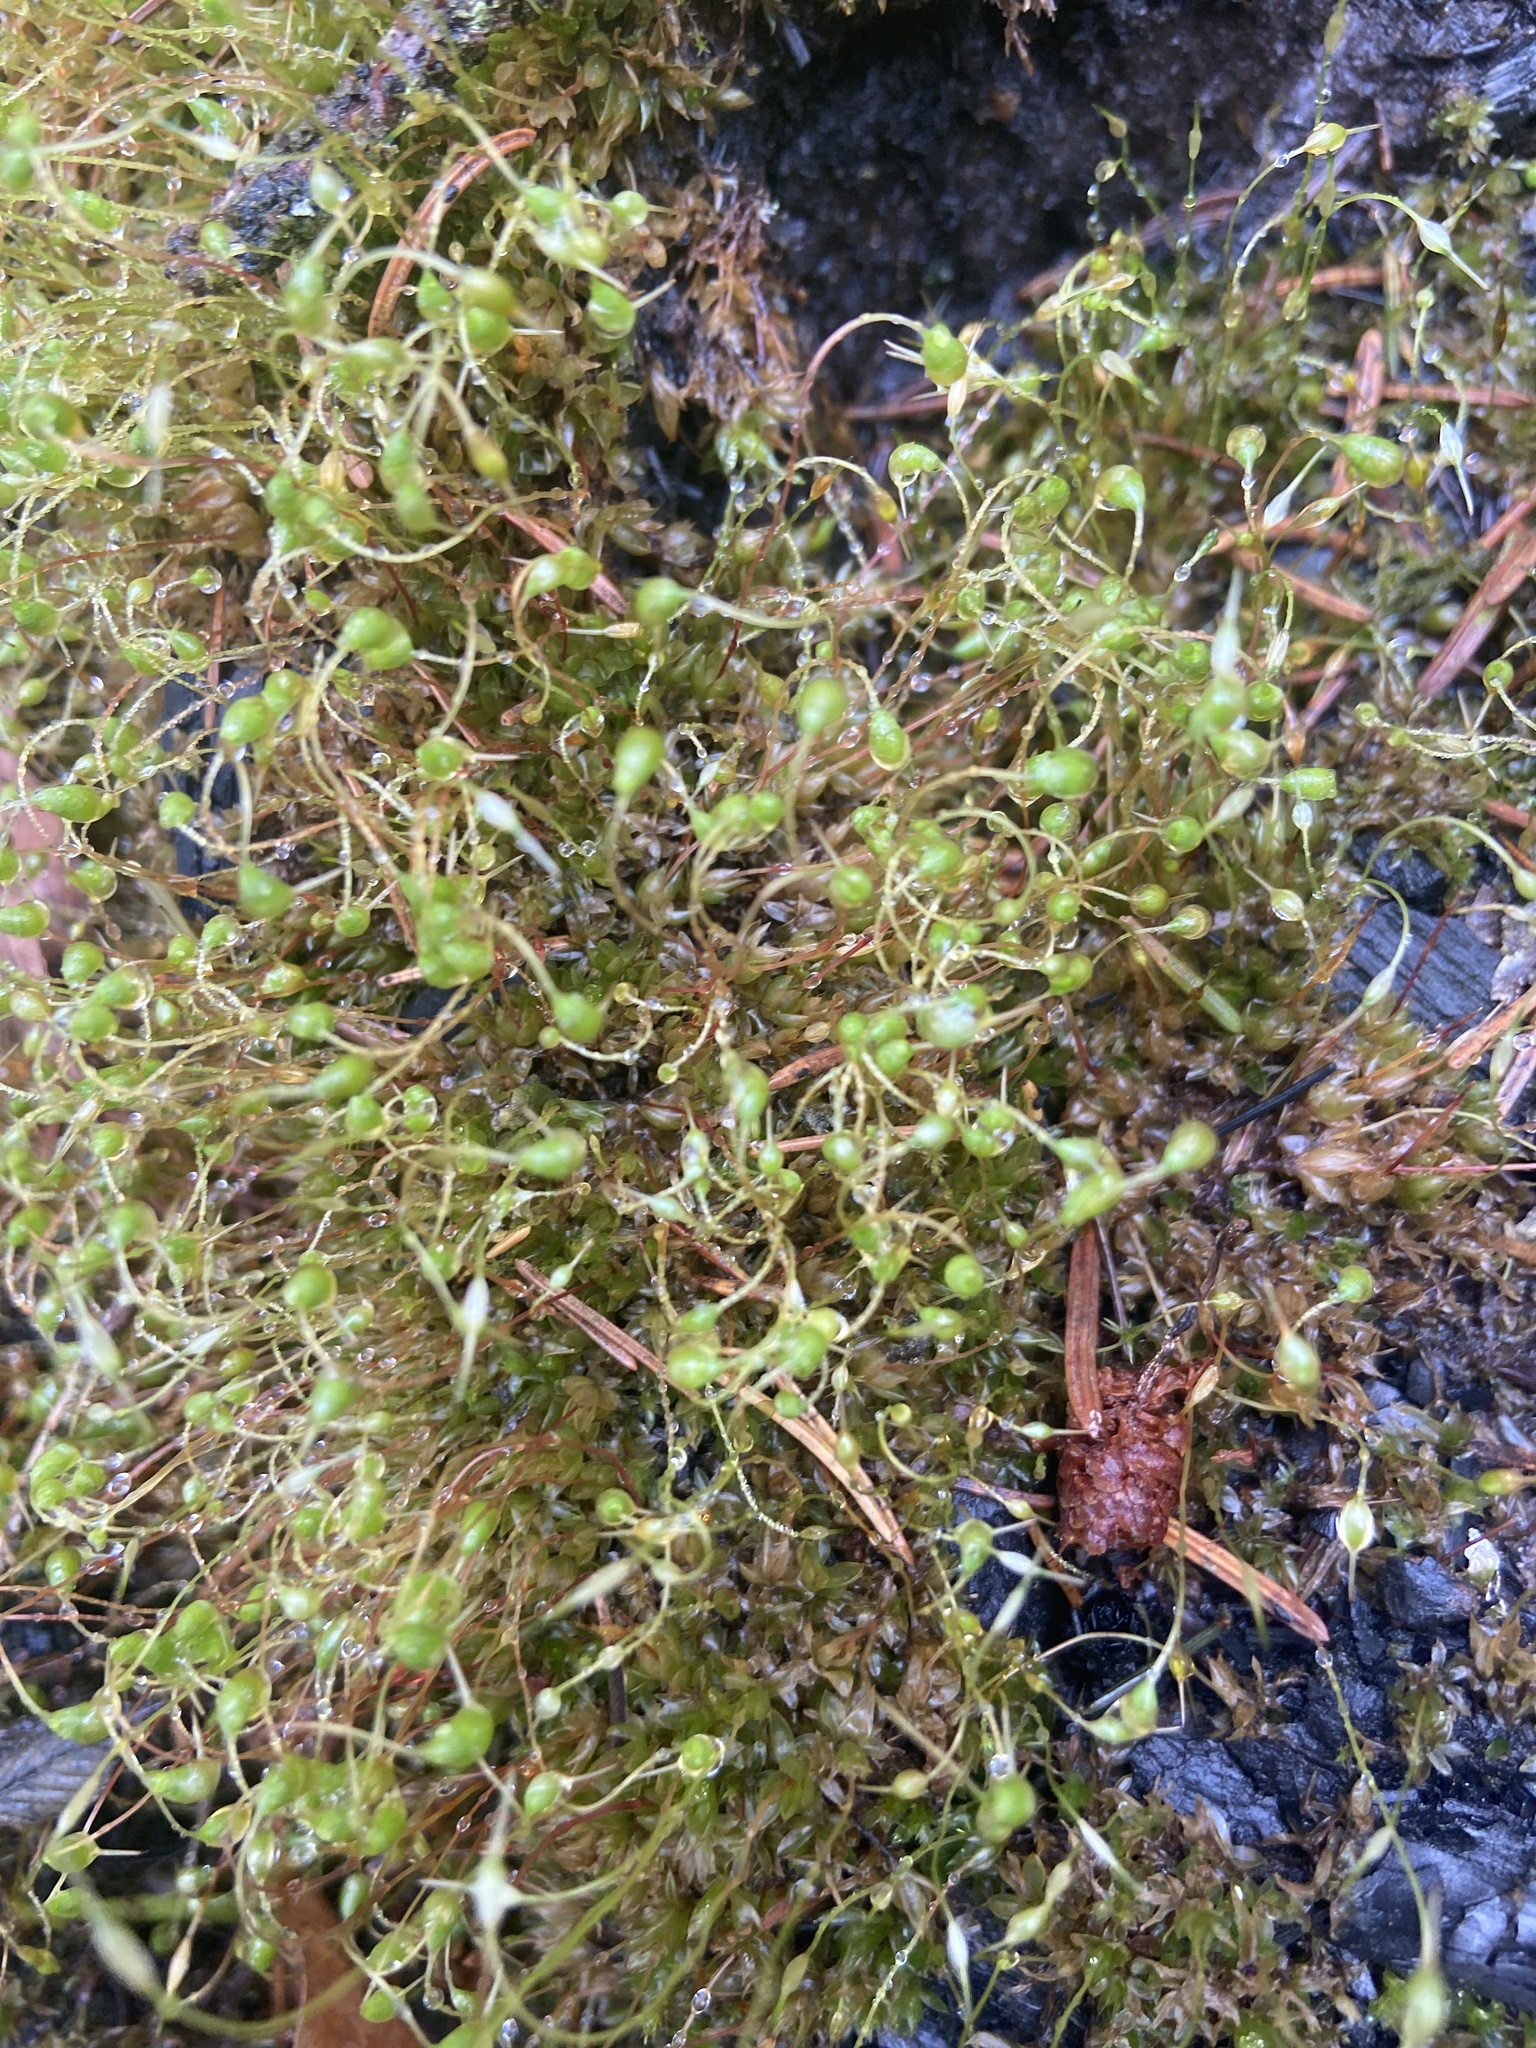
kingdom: Plantae
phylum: Bryophyta
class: Bryopsida
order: Funariales
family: Funariaceae
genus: Funaria
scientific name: Funaria hygrometrica
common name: Common cord moss
